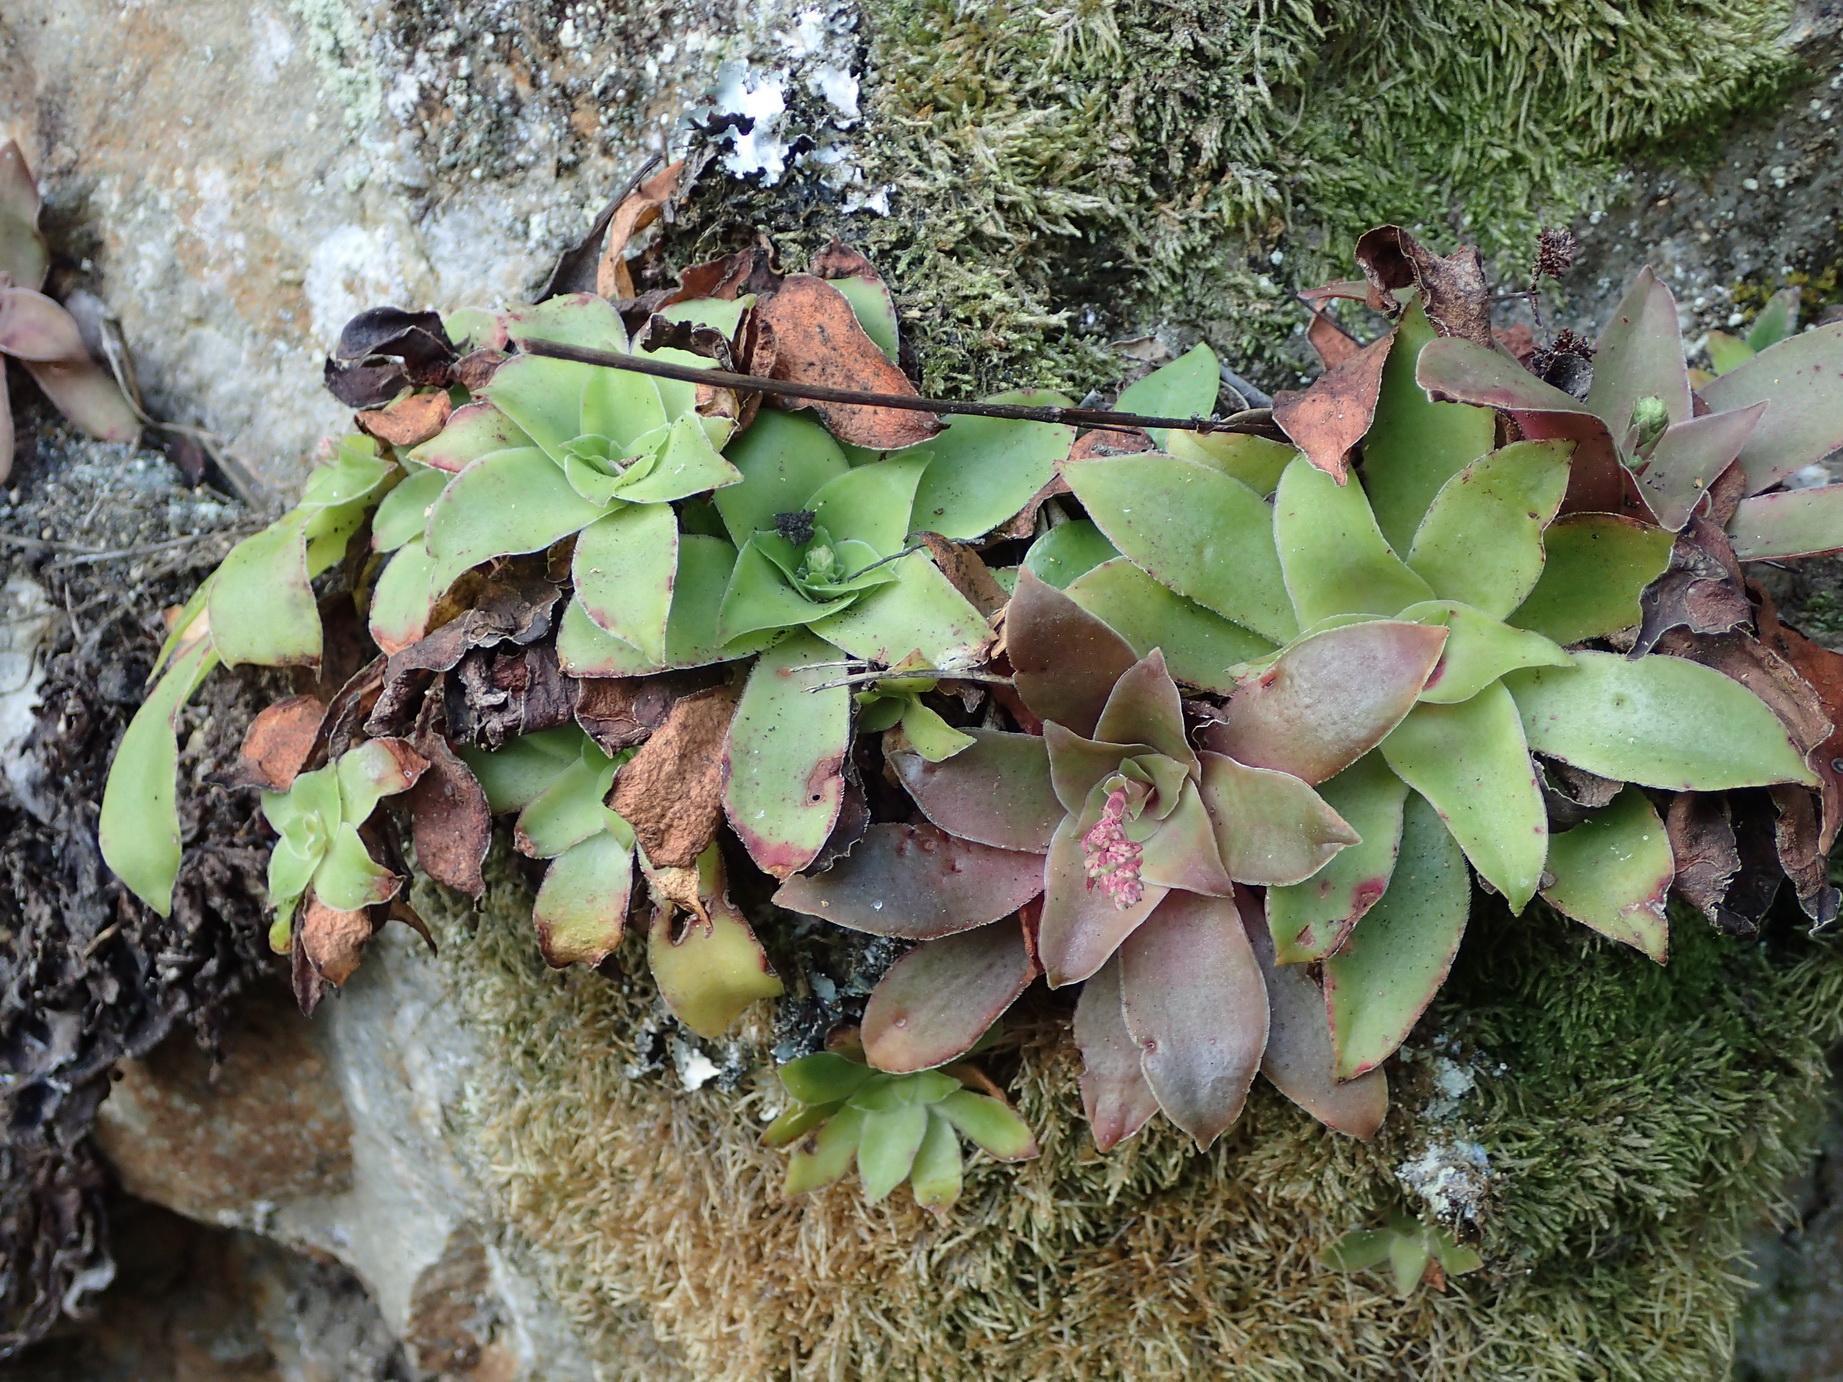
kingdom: Plantae
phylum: Tracheophyta
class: Magnoliopsida
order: Saxifragales
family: Crassulaceae
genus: Crassula
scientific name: Crassula orbicularis
